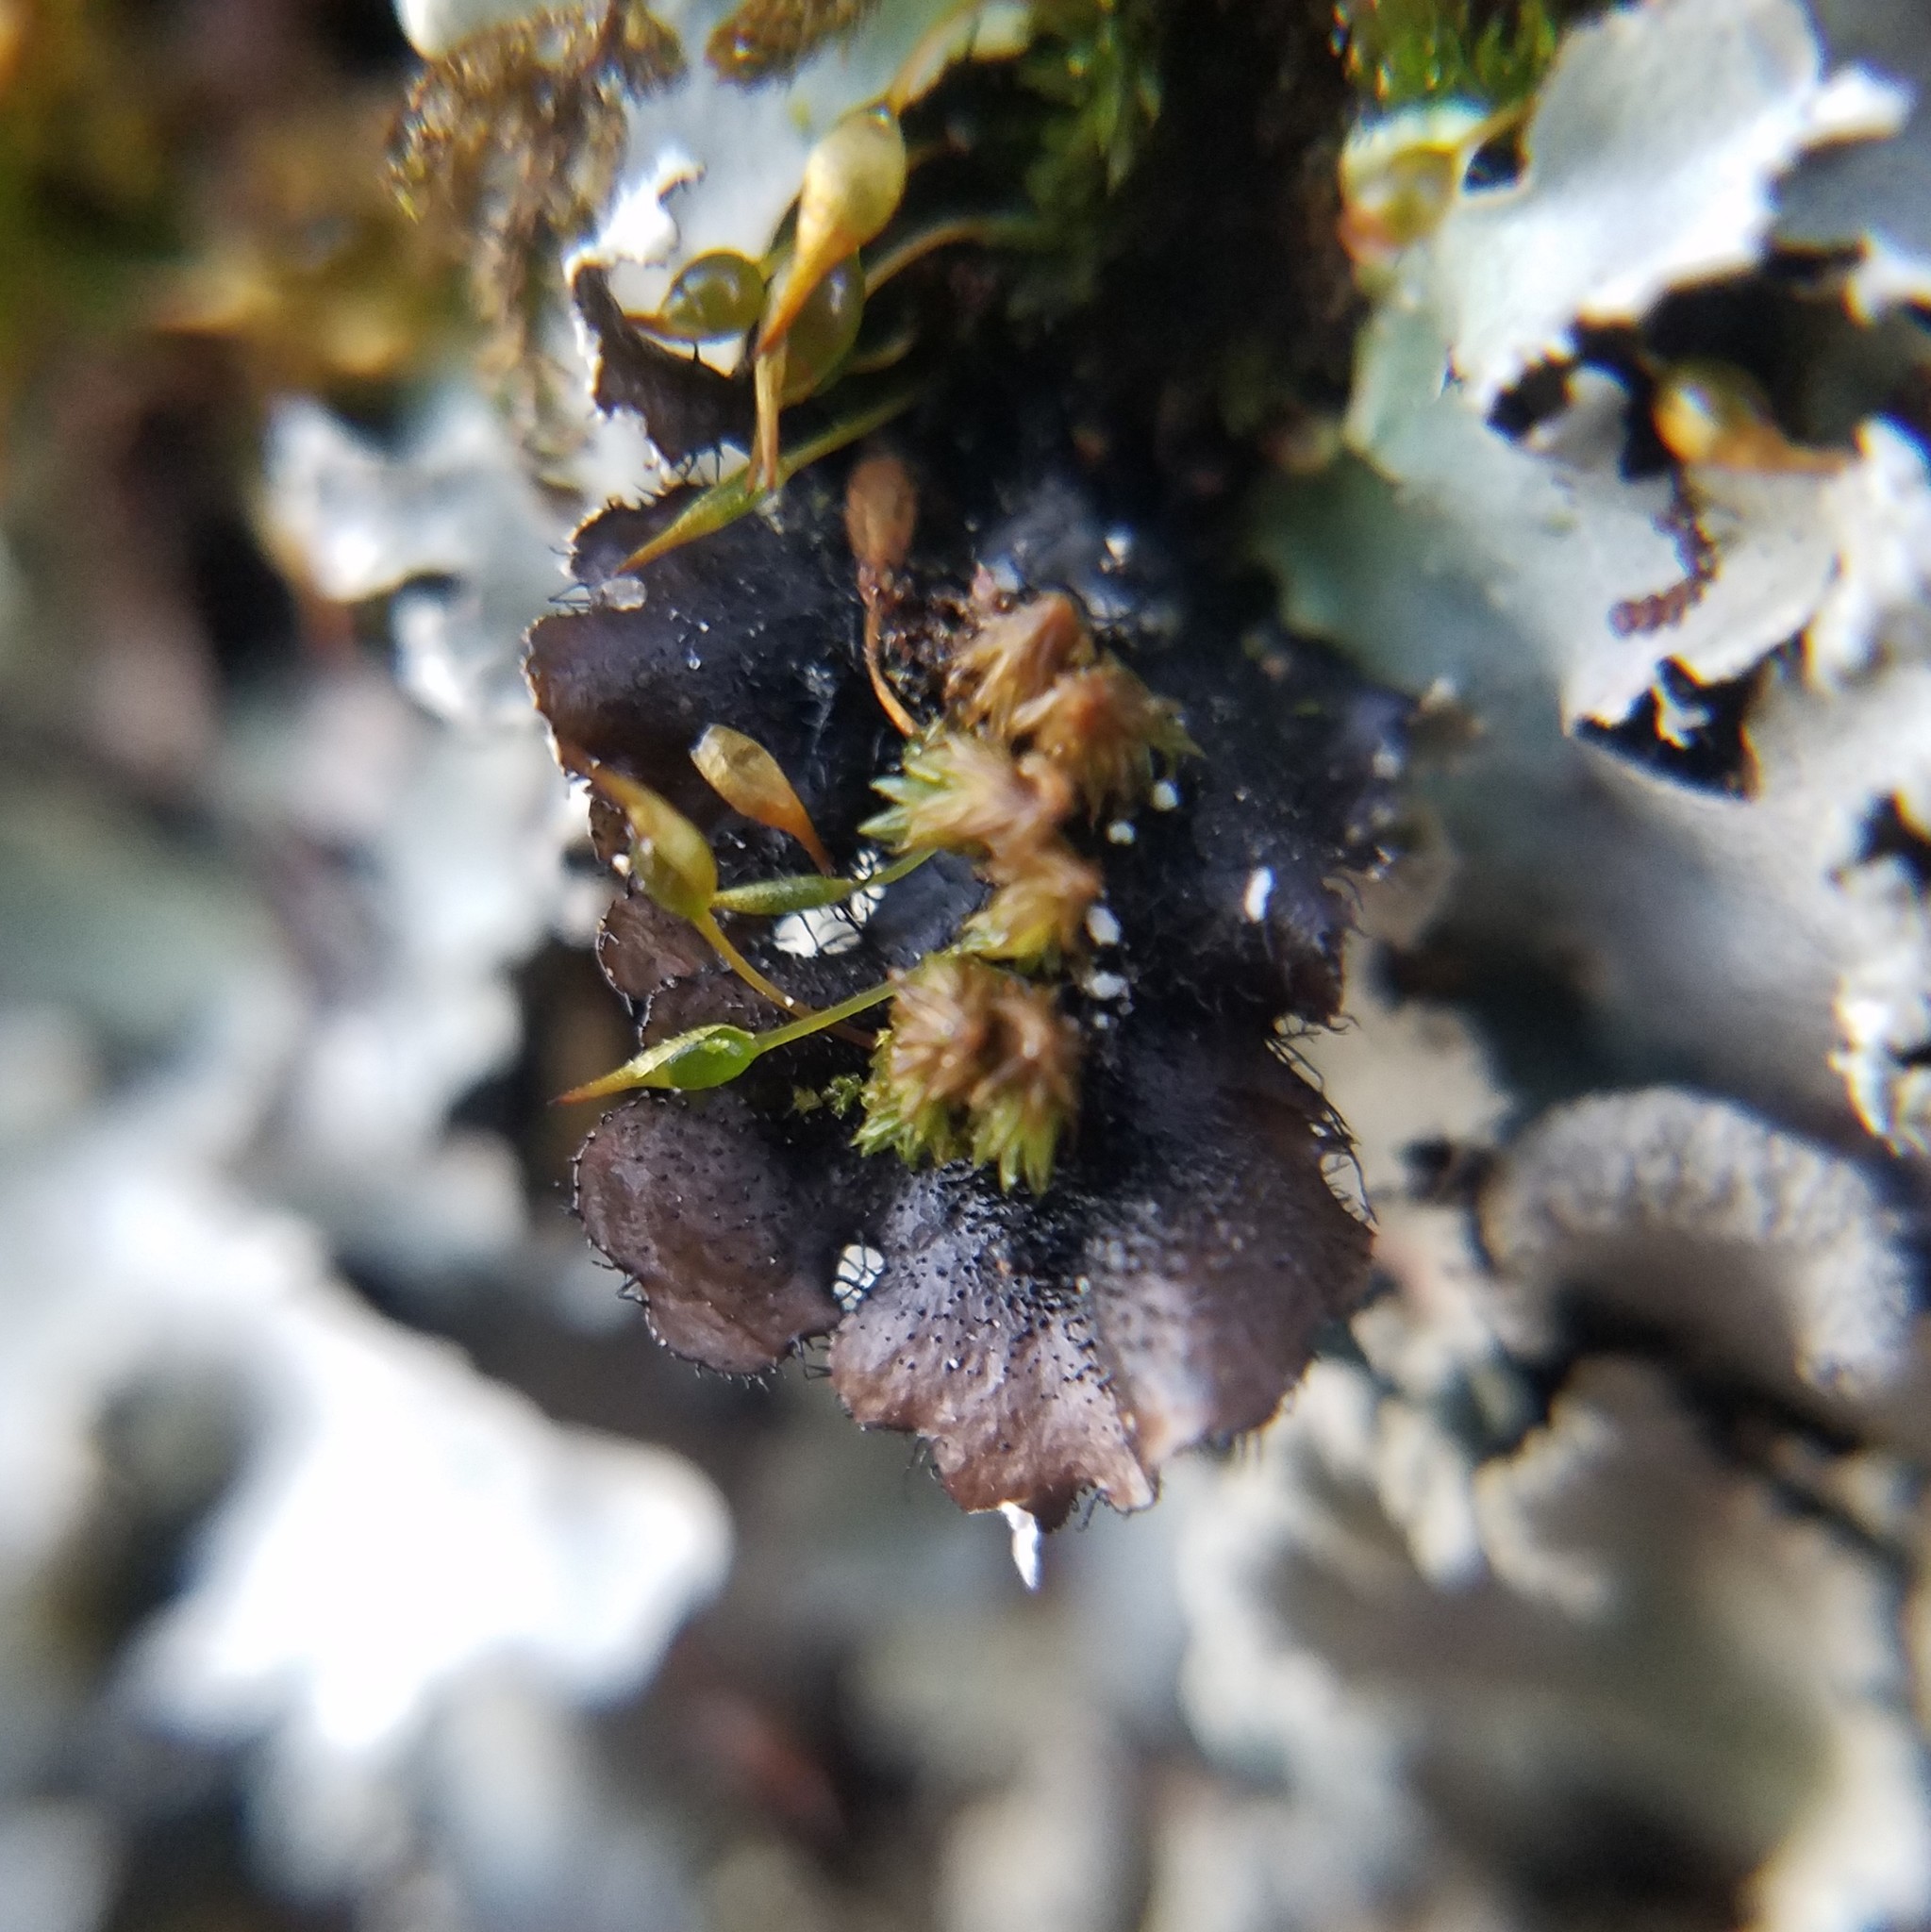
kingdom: Fungi
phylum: Ascomycota
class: Lecanoromycetes
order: Lecanorales
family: Parmeliaceae
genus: Rimelia
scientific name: Rimelia subisidiosa
